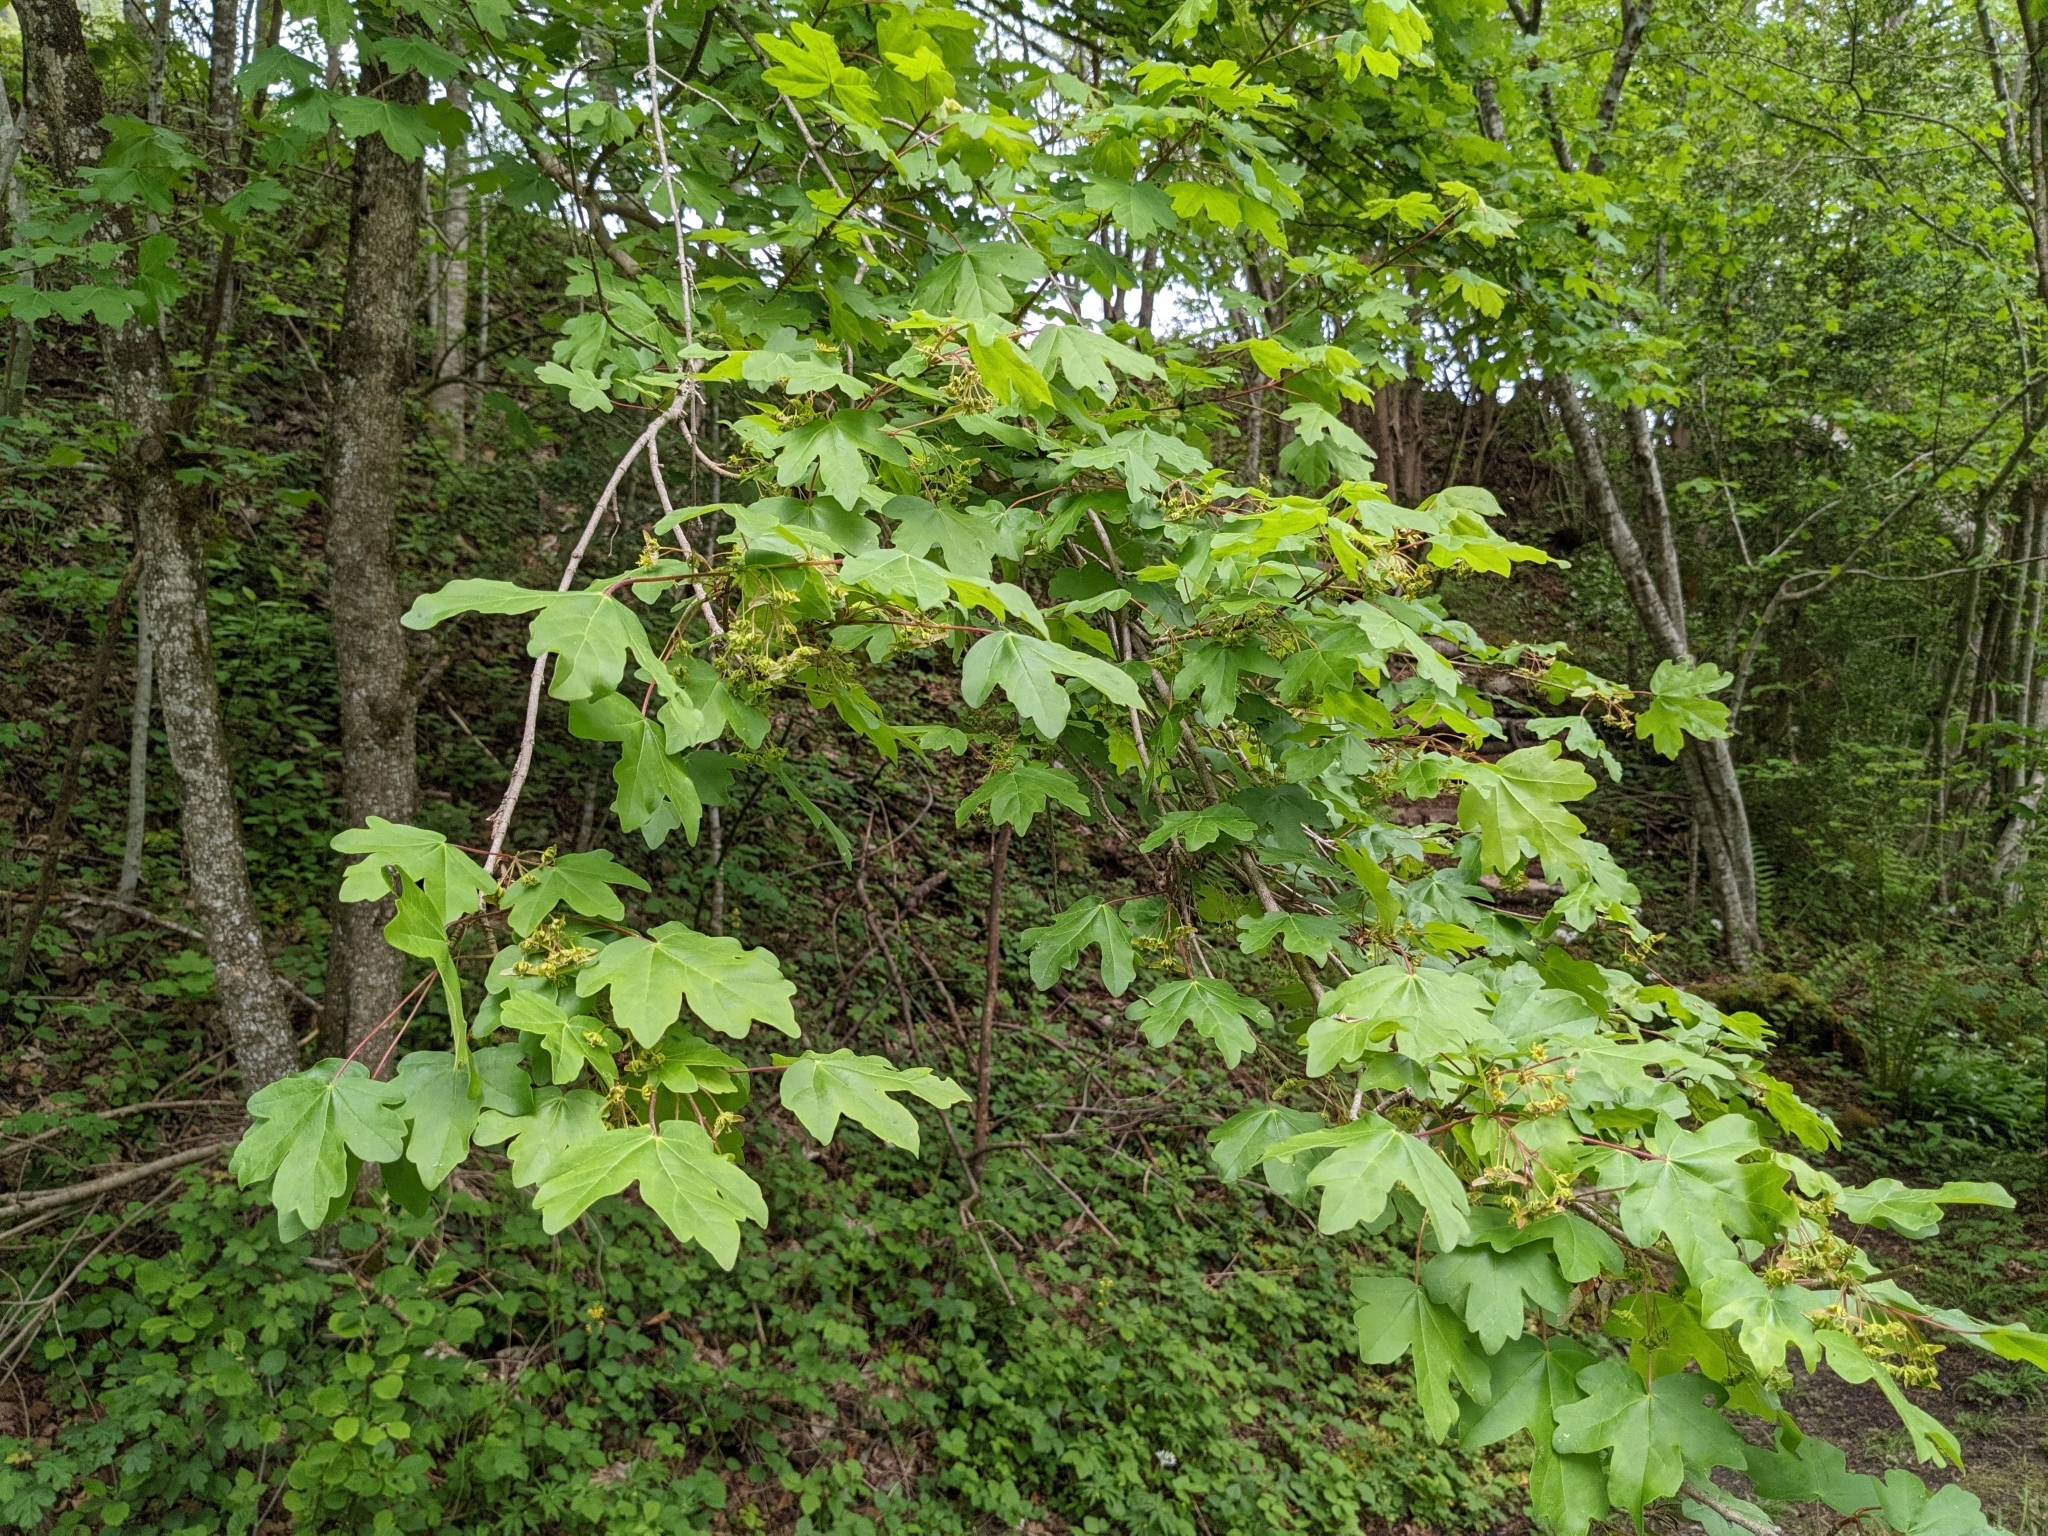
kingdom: Plantae
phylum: Tracheophyta
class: Magnoliopsida
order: Sapindales
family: Sapindaceae
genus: Acer
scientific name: Acer campestre
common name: Field maple
